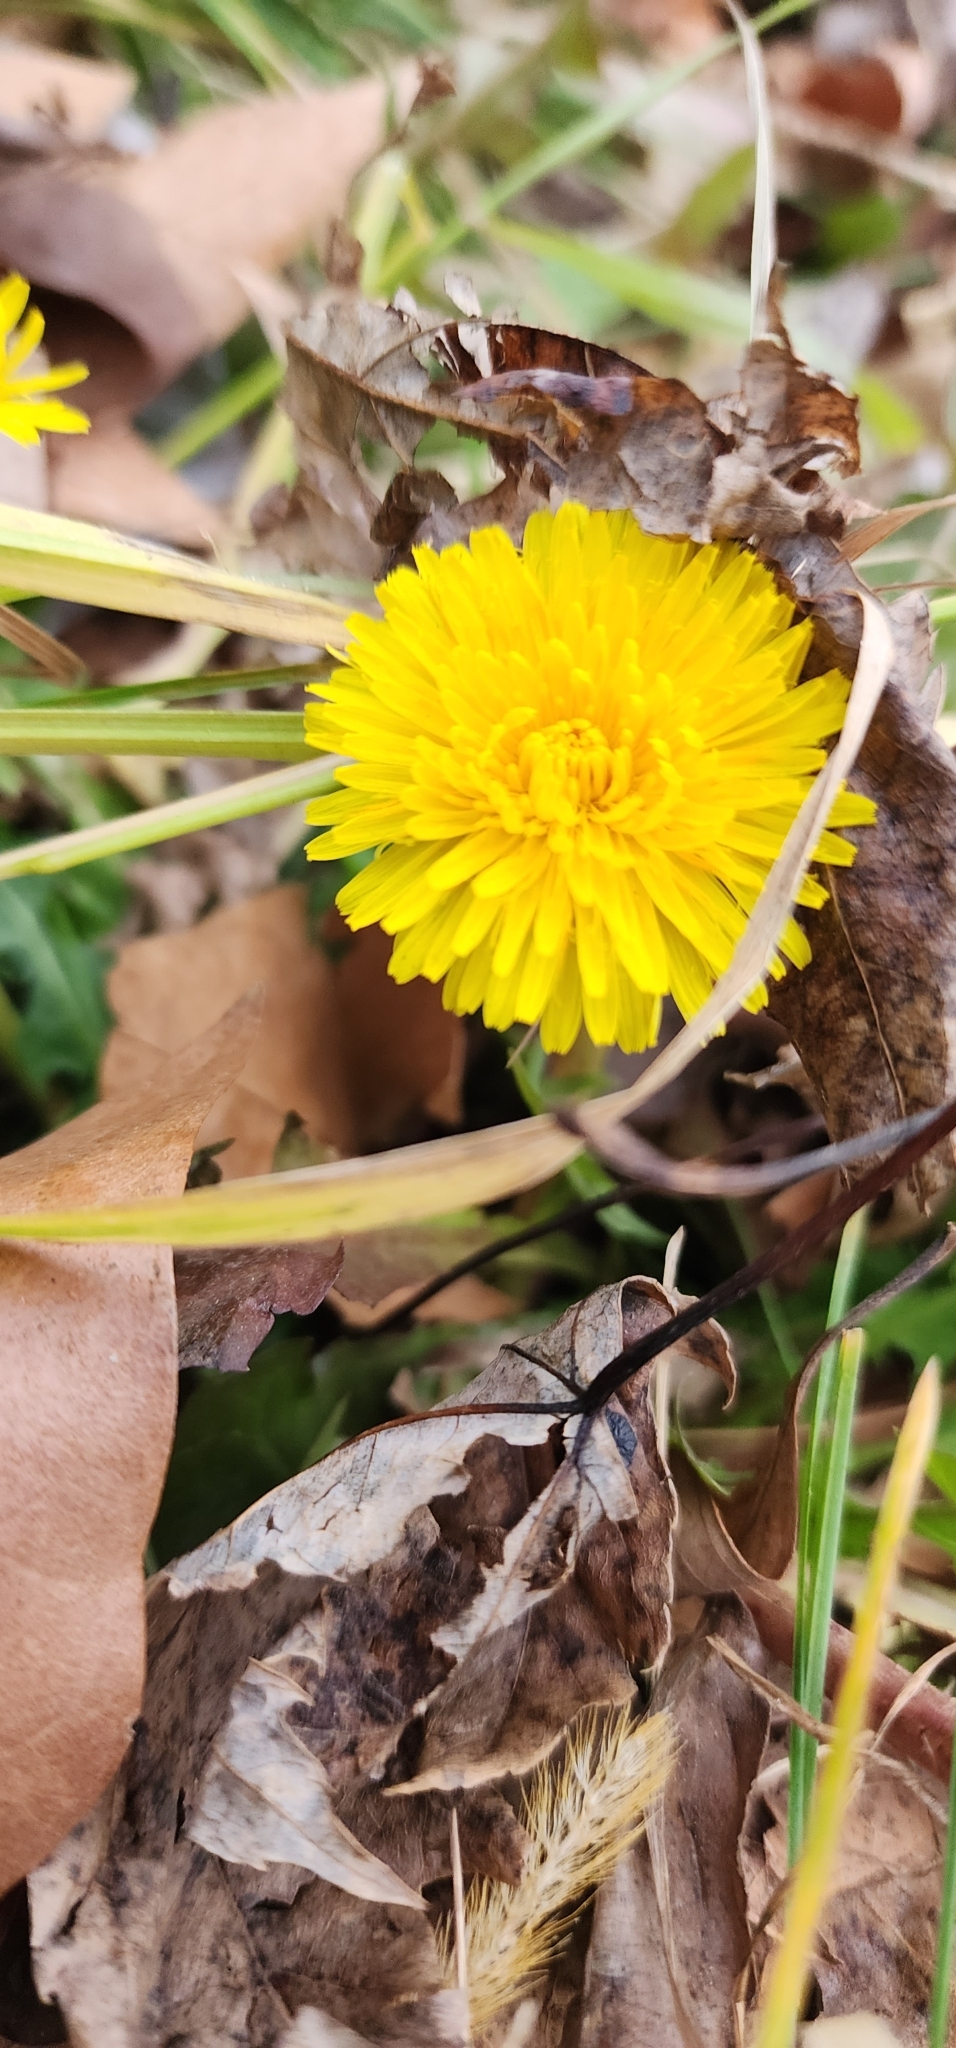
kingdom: Plantae
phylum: Tracheophyta
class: Magnoliopsida
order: Asterales
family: Asteraceae
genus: Taraxacum
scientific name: Taraxacum officinale
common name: Common dandelion
